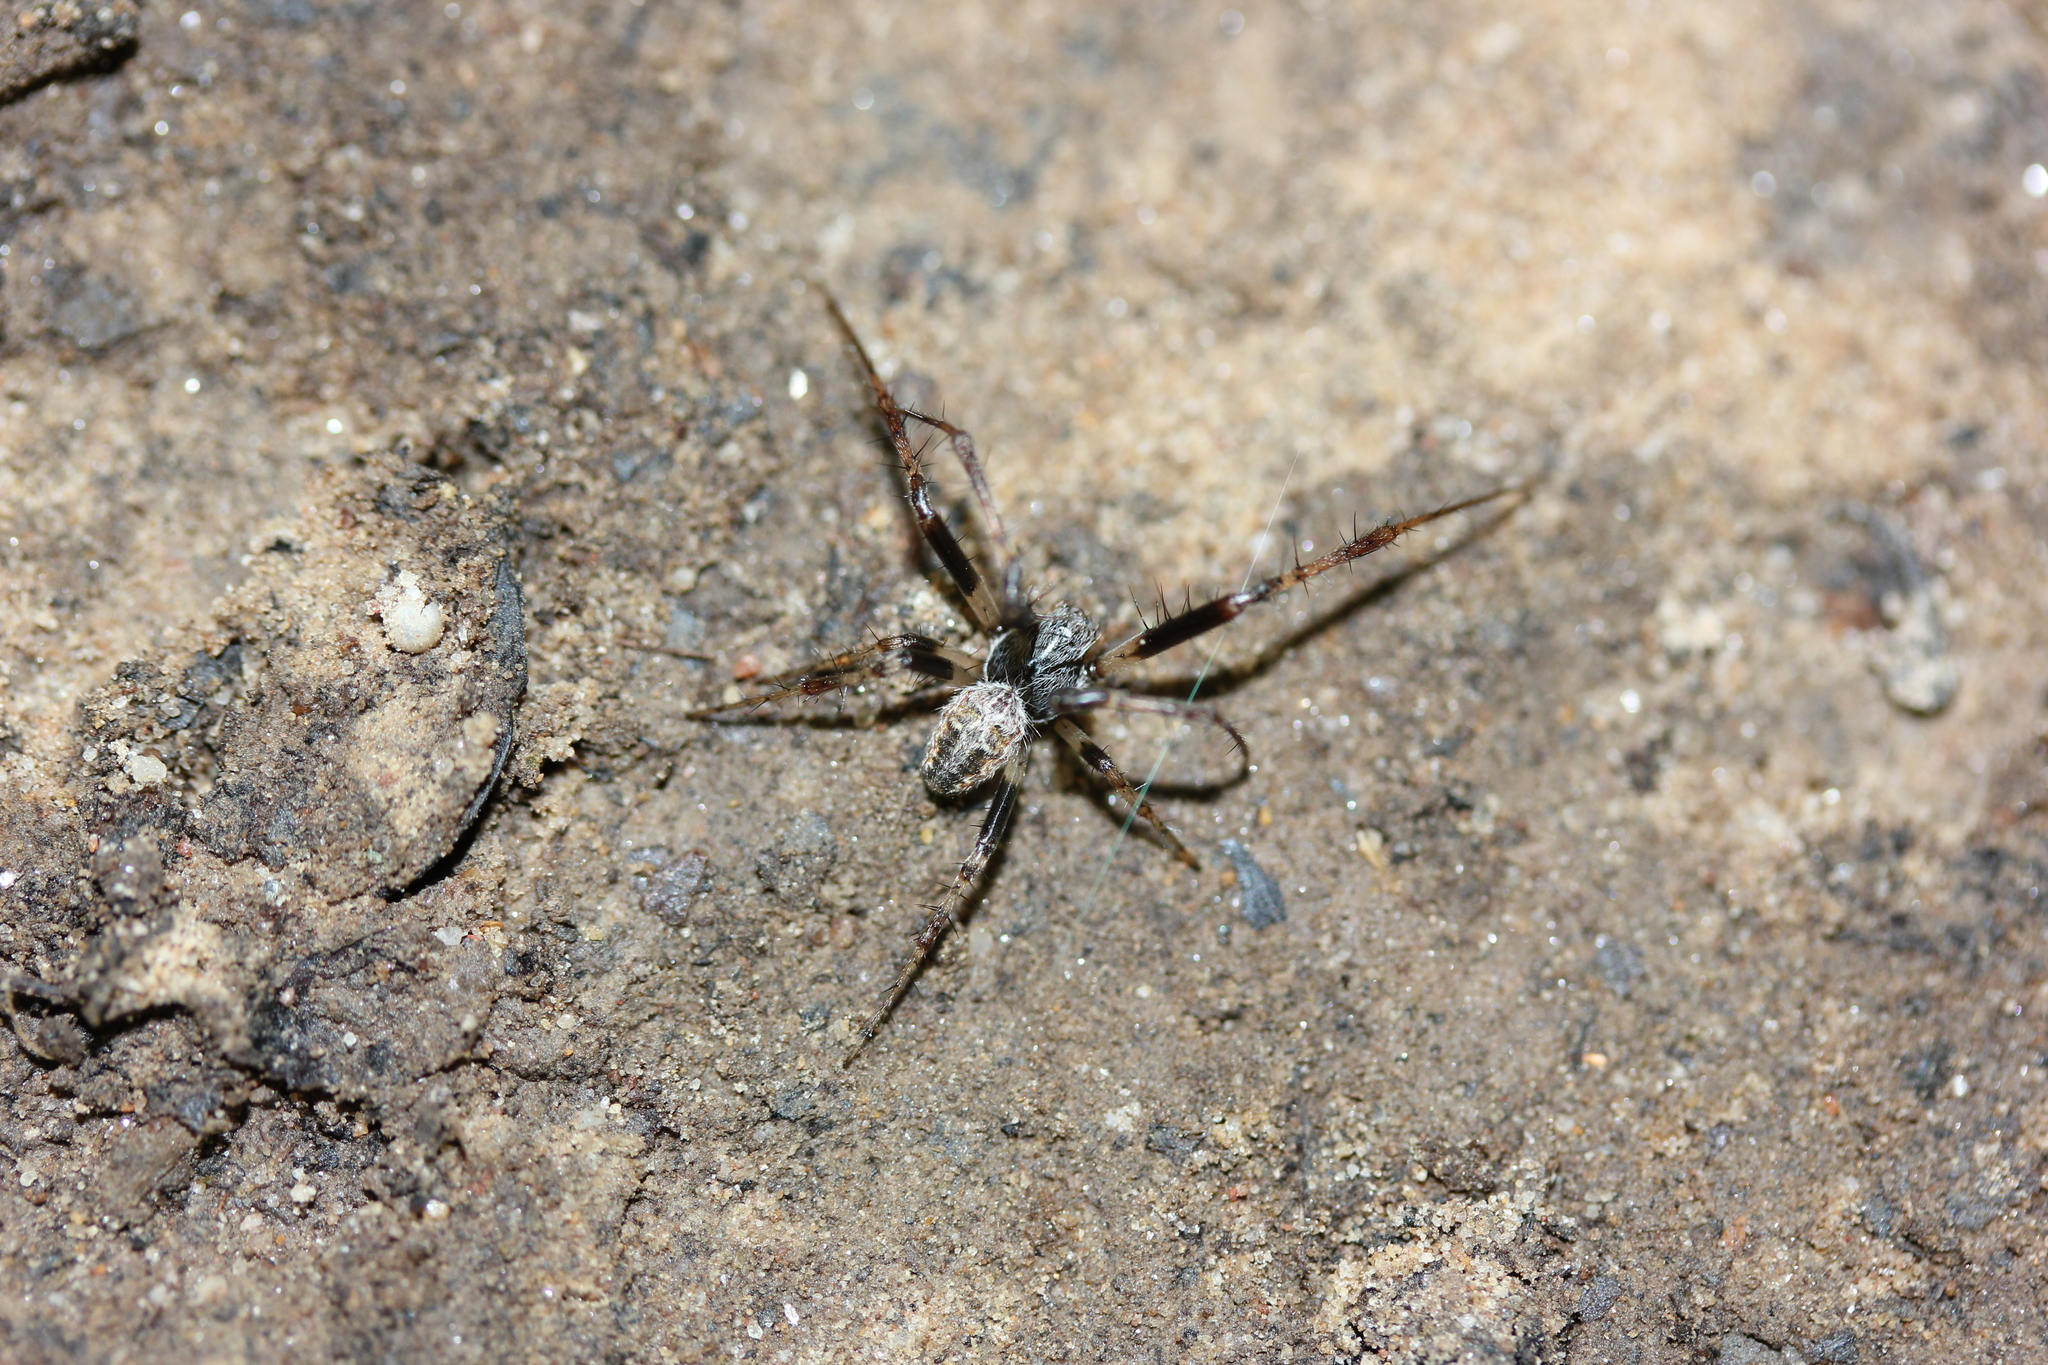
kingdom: Animalia
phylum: Arthropoda
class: Arachnida
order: Araneae
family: Araneidae
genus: Metepeira
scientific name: Metepeira labyrinthea
